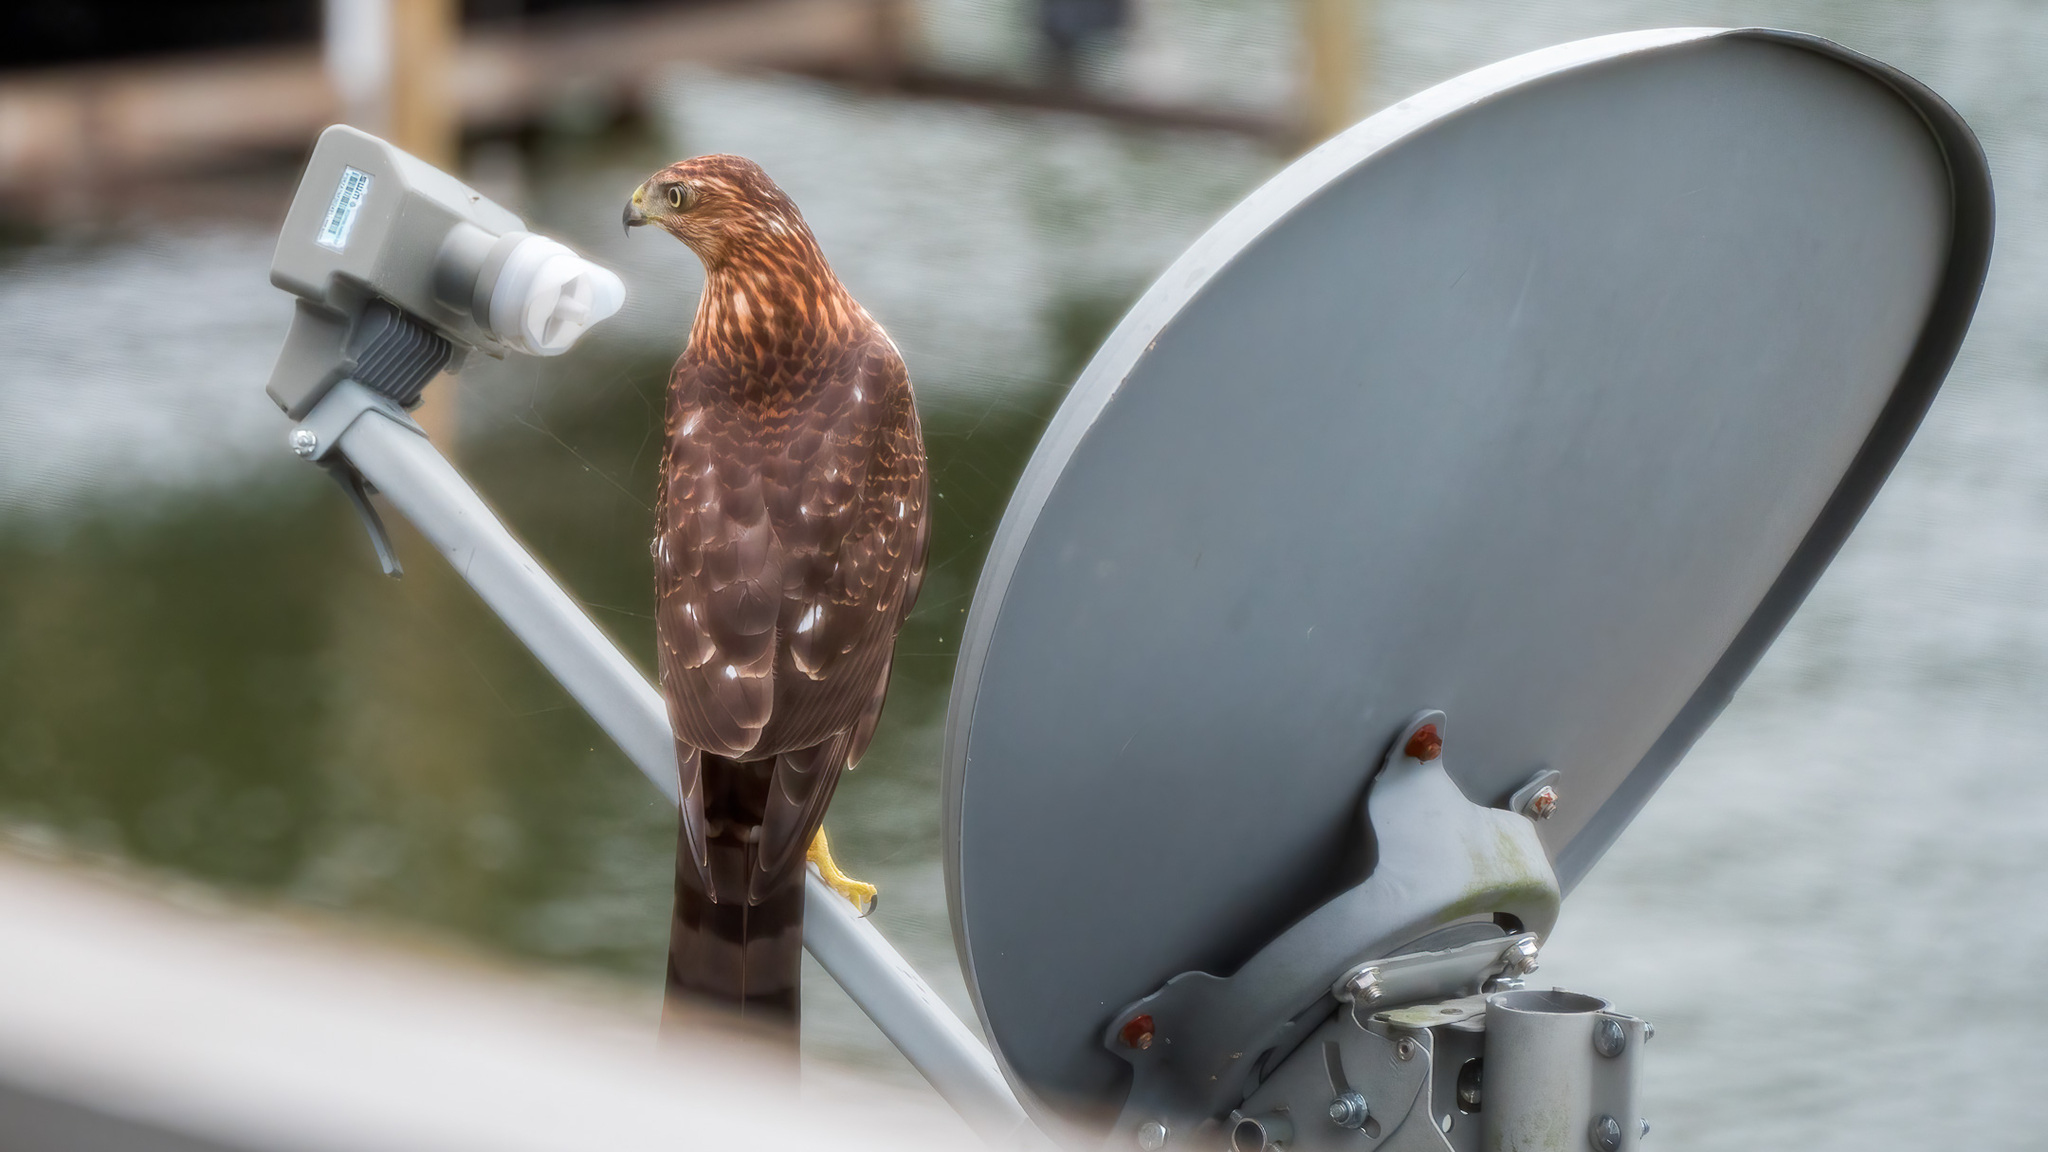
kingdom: Animalia
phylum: Chordata
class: Aves
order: Accipitriformes
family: Accipitridae
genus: Accipiter
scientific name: Accipiter cooperii
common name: Cooper's hawk
